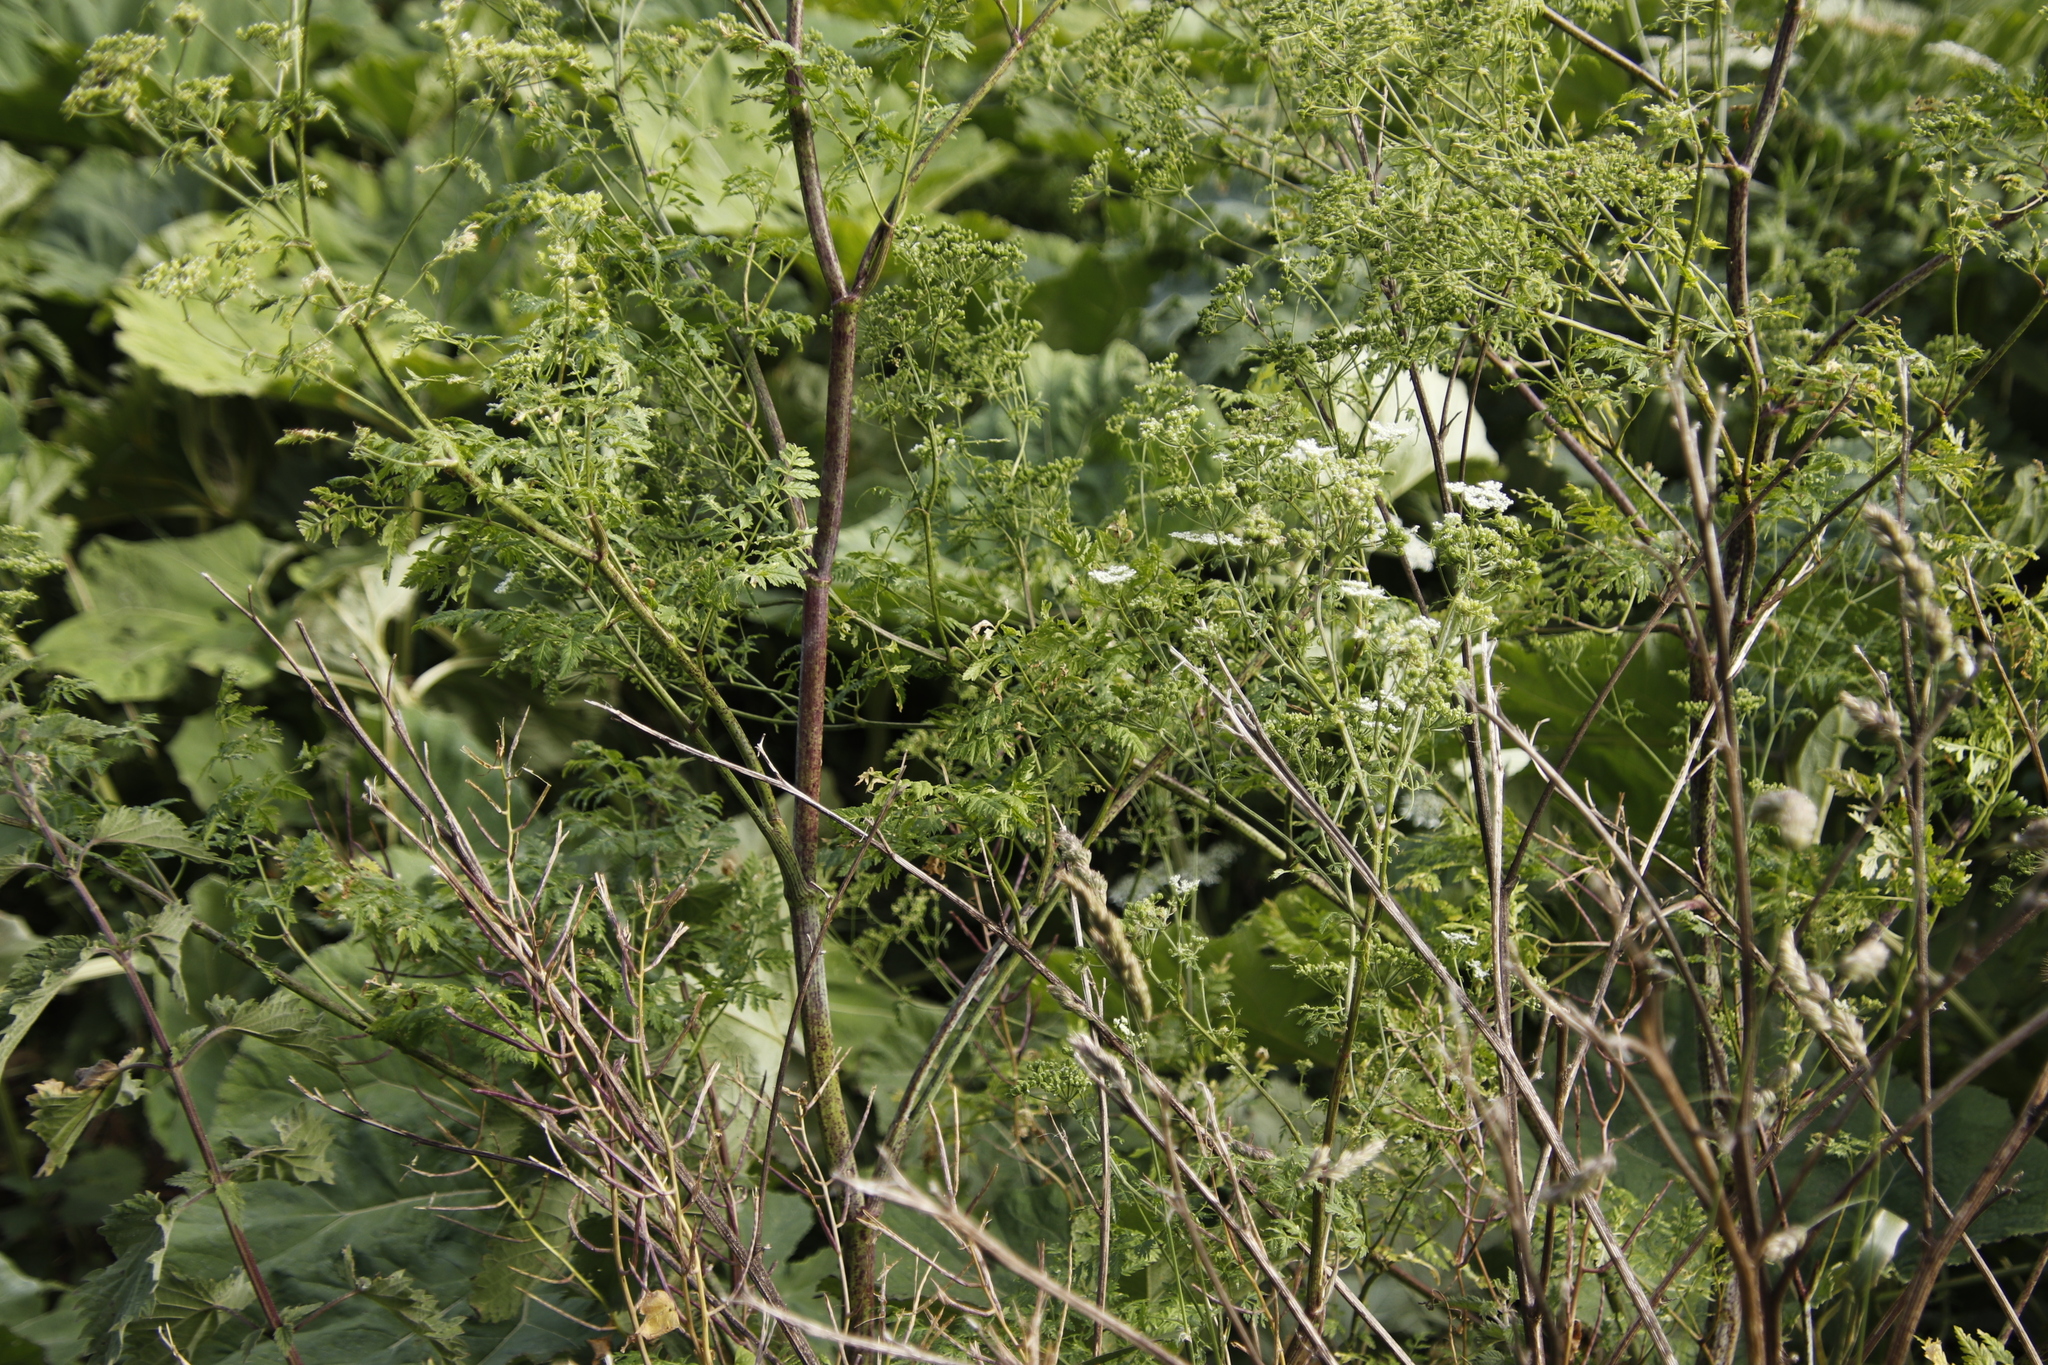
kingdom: Plantae
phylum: Tracheophyta
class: Magnoliopsida
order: Apiales
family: Apiaceae
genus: Conium
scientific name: Conium maculatum
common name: Hemlock
